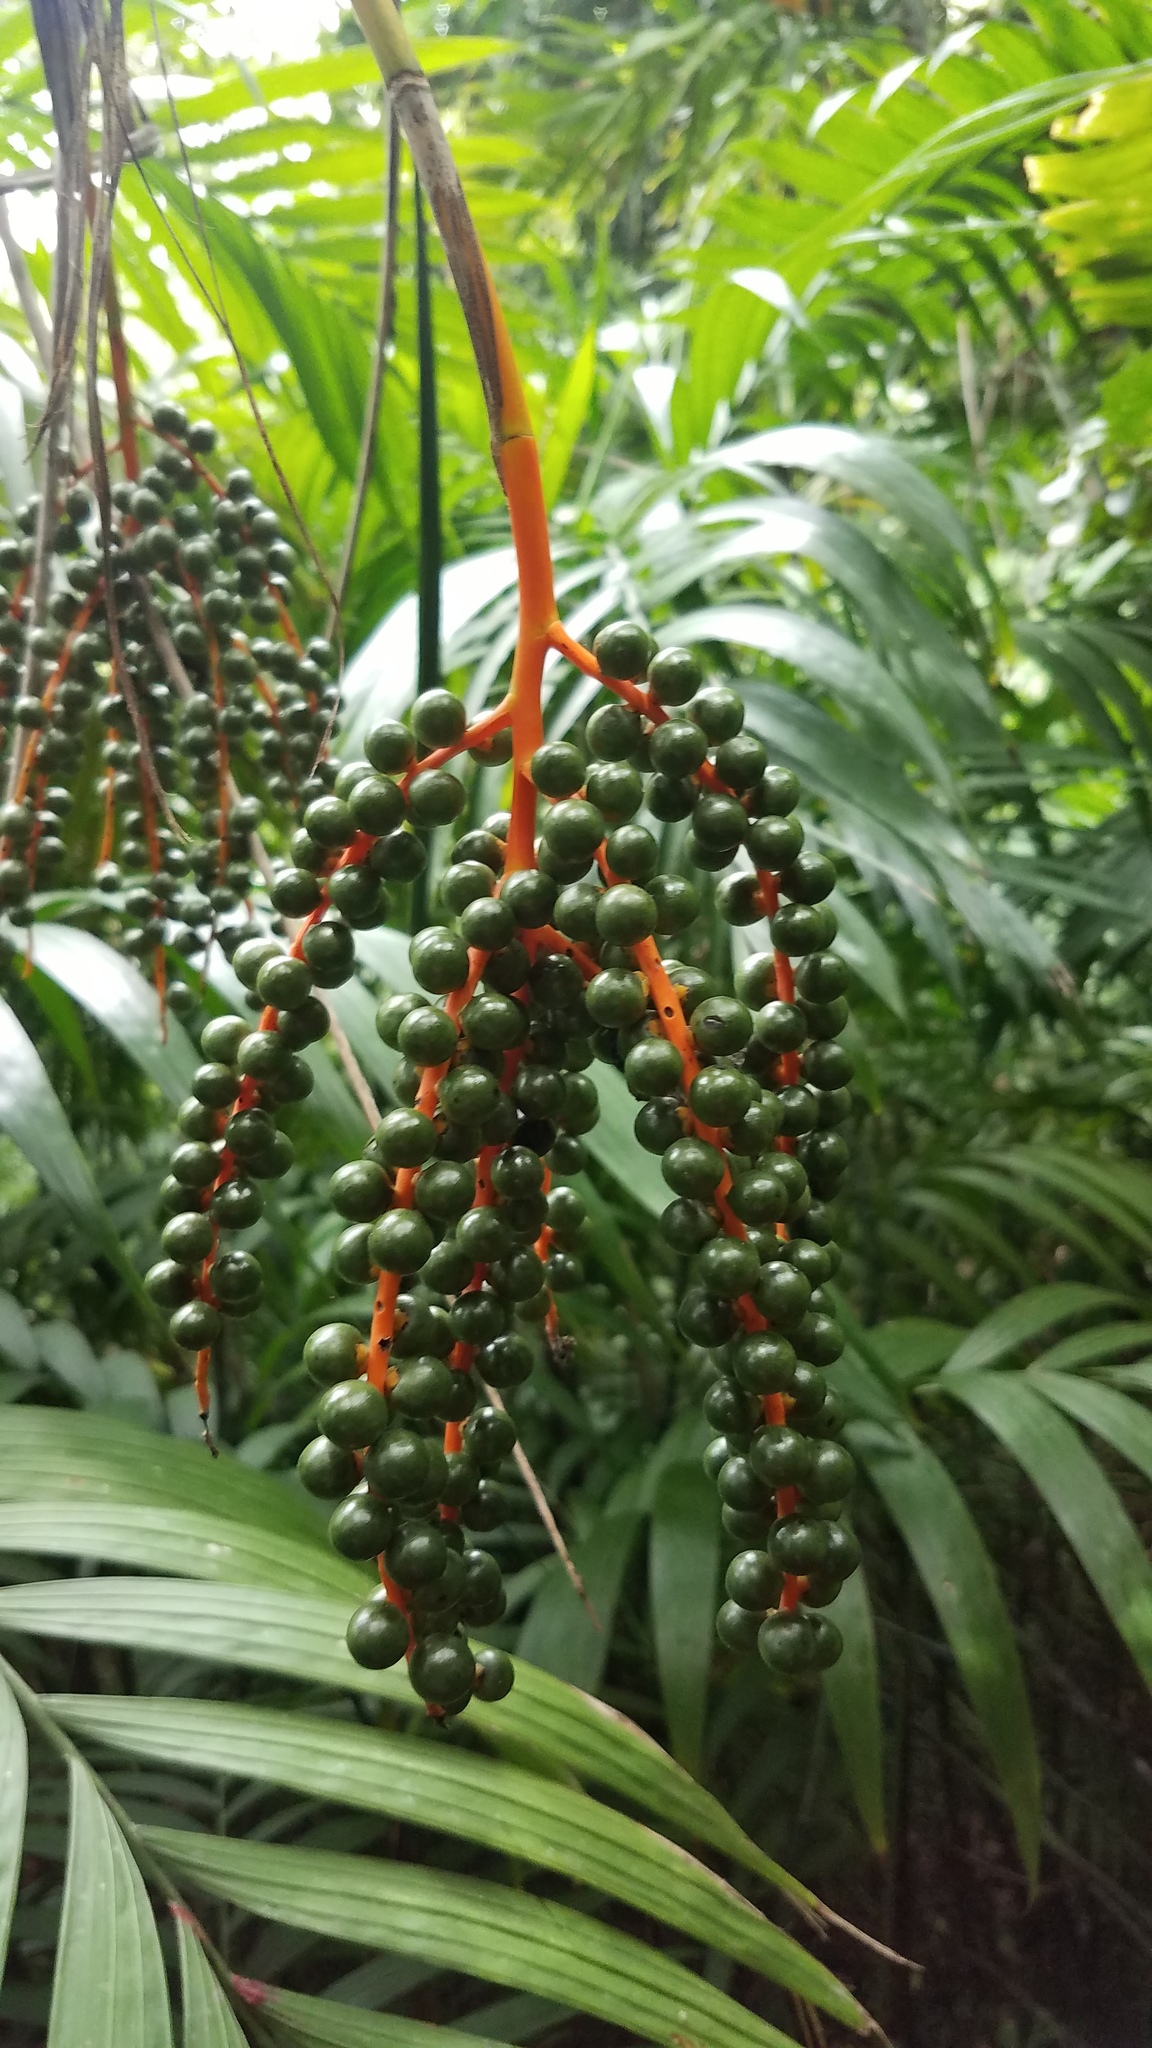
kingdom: Plantae
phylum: Tracheophyta
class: Liliopsida
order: Arecales
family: Arecaceae
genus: Chamaedorea
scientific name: Chamaedorea costaricana
